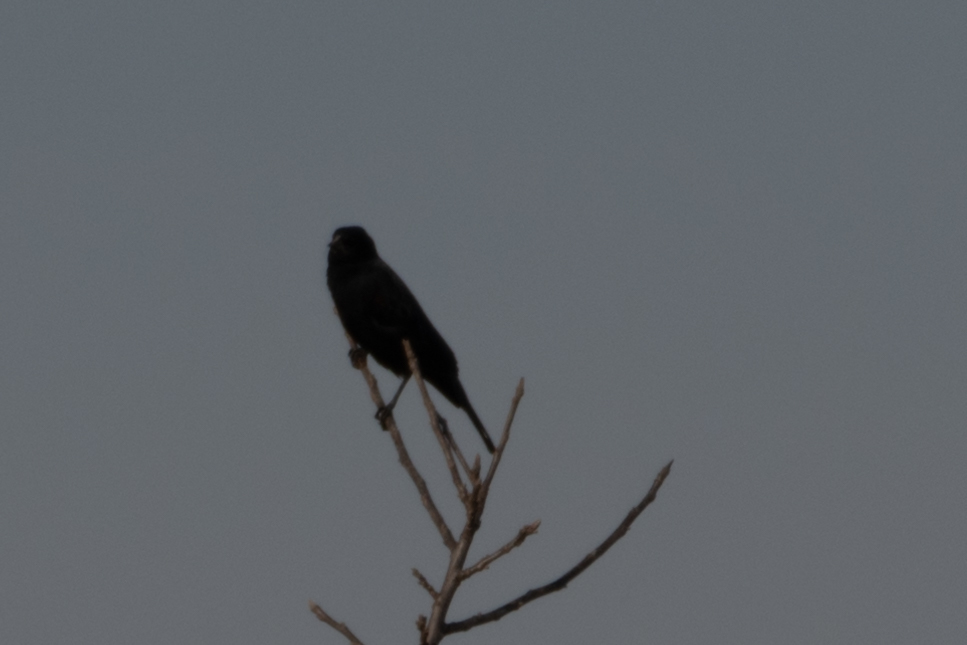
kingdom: Animalia
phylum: Chordata
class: Aves
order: Passeriformes
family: Icteridae
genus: Agelaius
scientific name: Agelaius phoeniceus
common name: Red-winged blackbird
